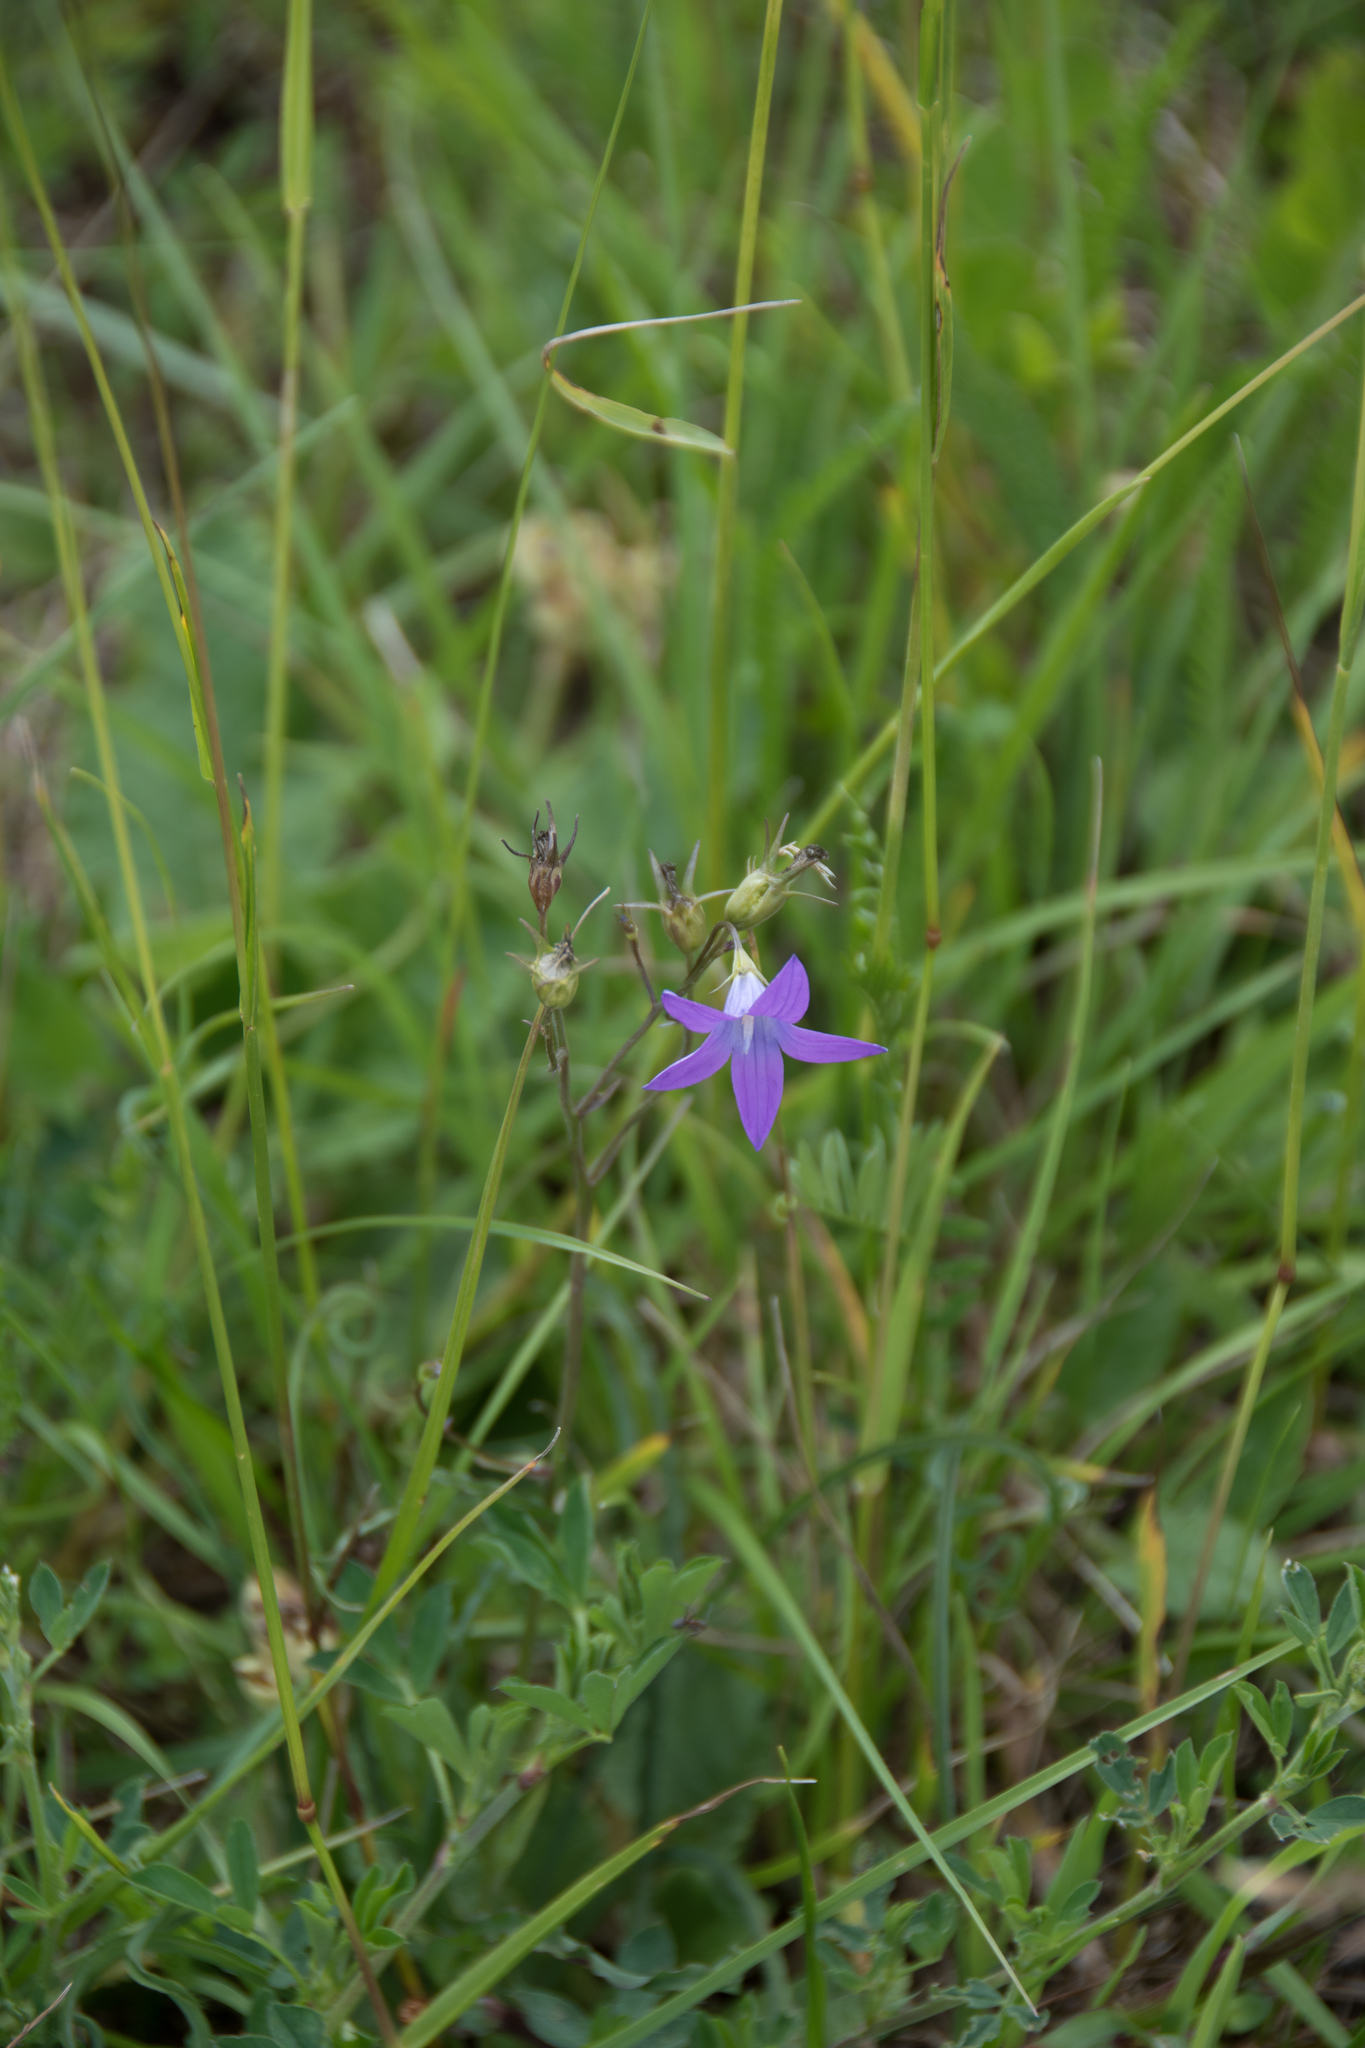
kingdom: Plantae
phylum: Tracheophyta
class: Magnoliopsida
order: Asterales
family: Campanulaceae
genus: Campanula
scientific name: Campanula patula
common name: Spreading bellflower
